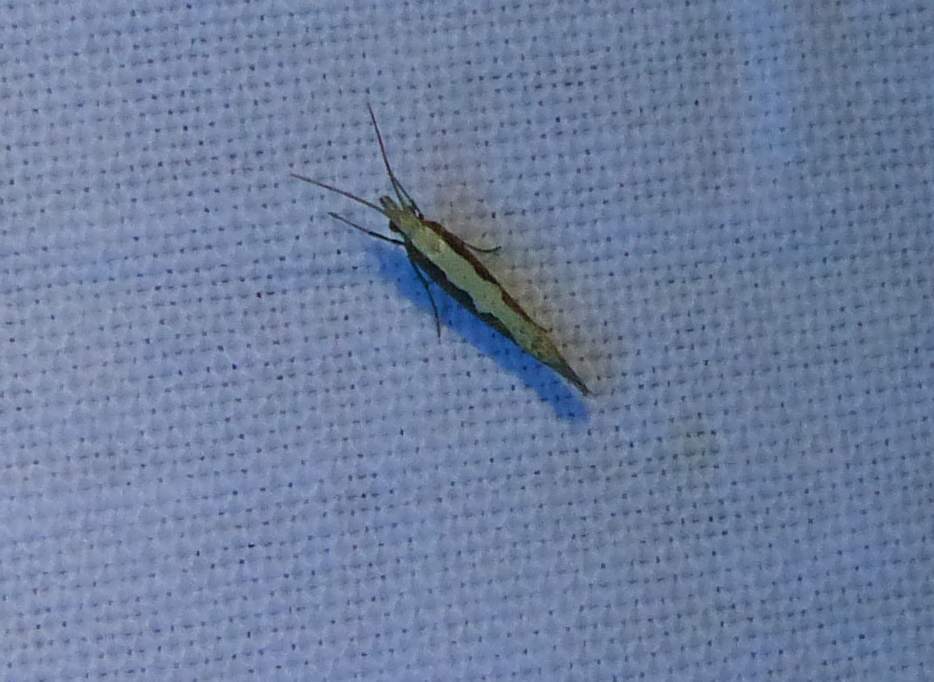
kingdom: Animalia
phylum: Arthropoda
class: Insecta
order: Lepidoptera
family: Plutellidae
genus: Plutella
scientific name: Plutella xylostella
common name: Diamond-back moth
